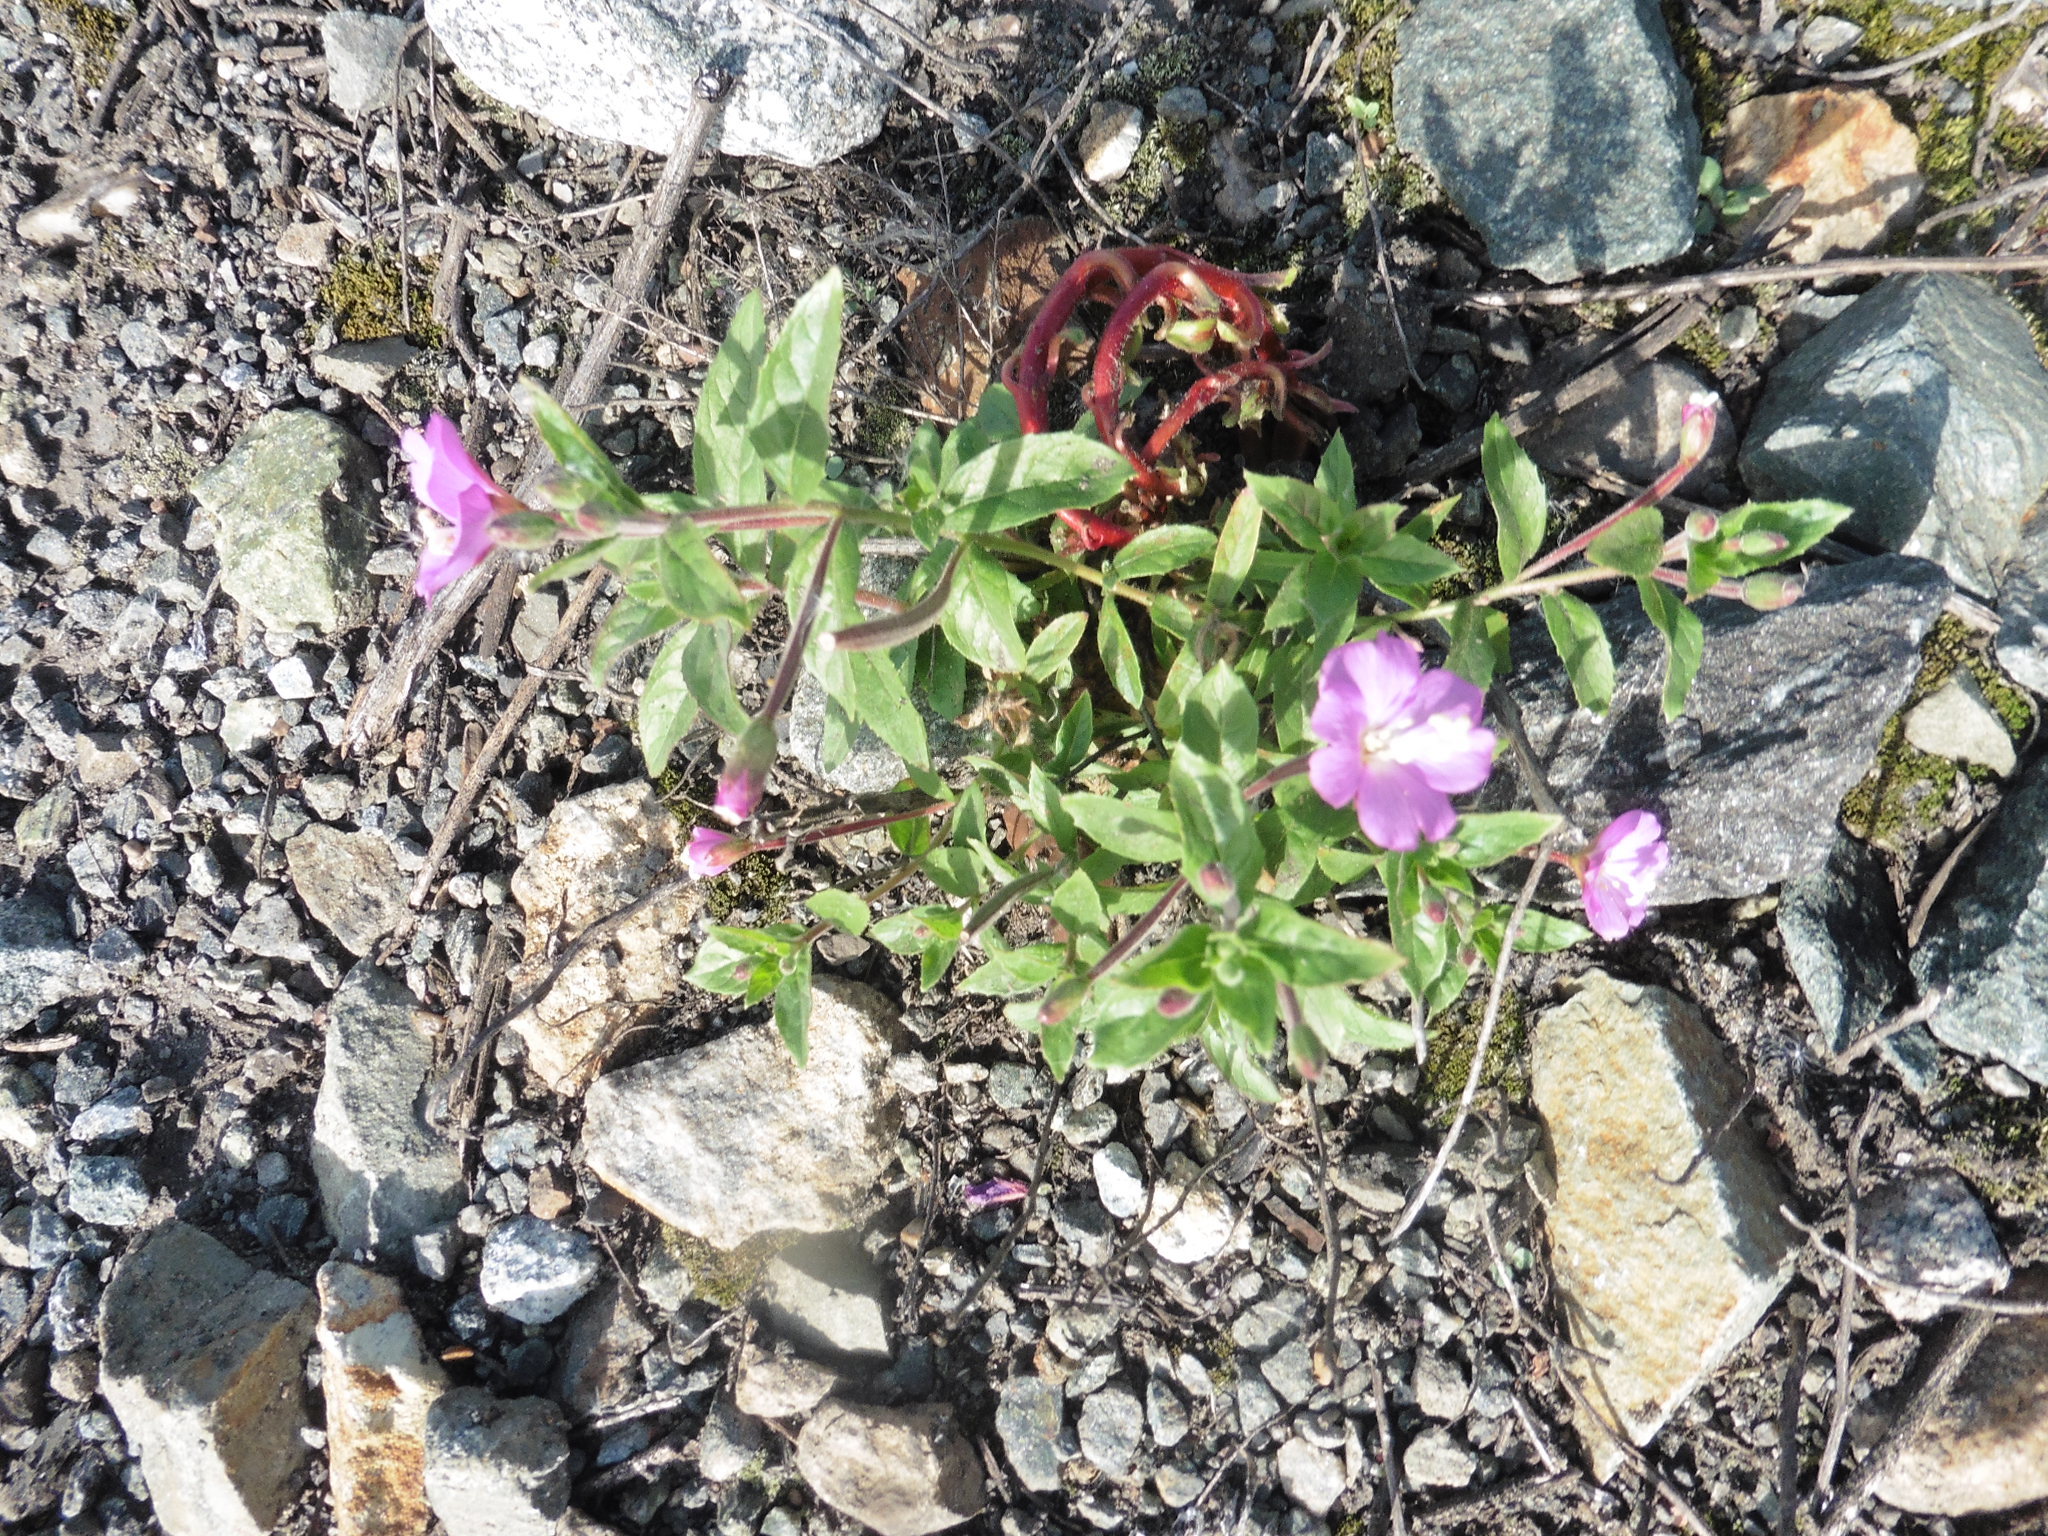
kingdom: Plantae
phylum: Tracheophyta
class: Magnoliopsida
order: Myrtales
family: Onagraceae
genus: Epilobium
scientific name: Epilobium hirsutum
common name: Great willowherb
